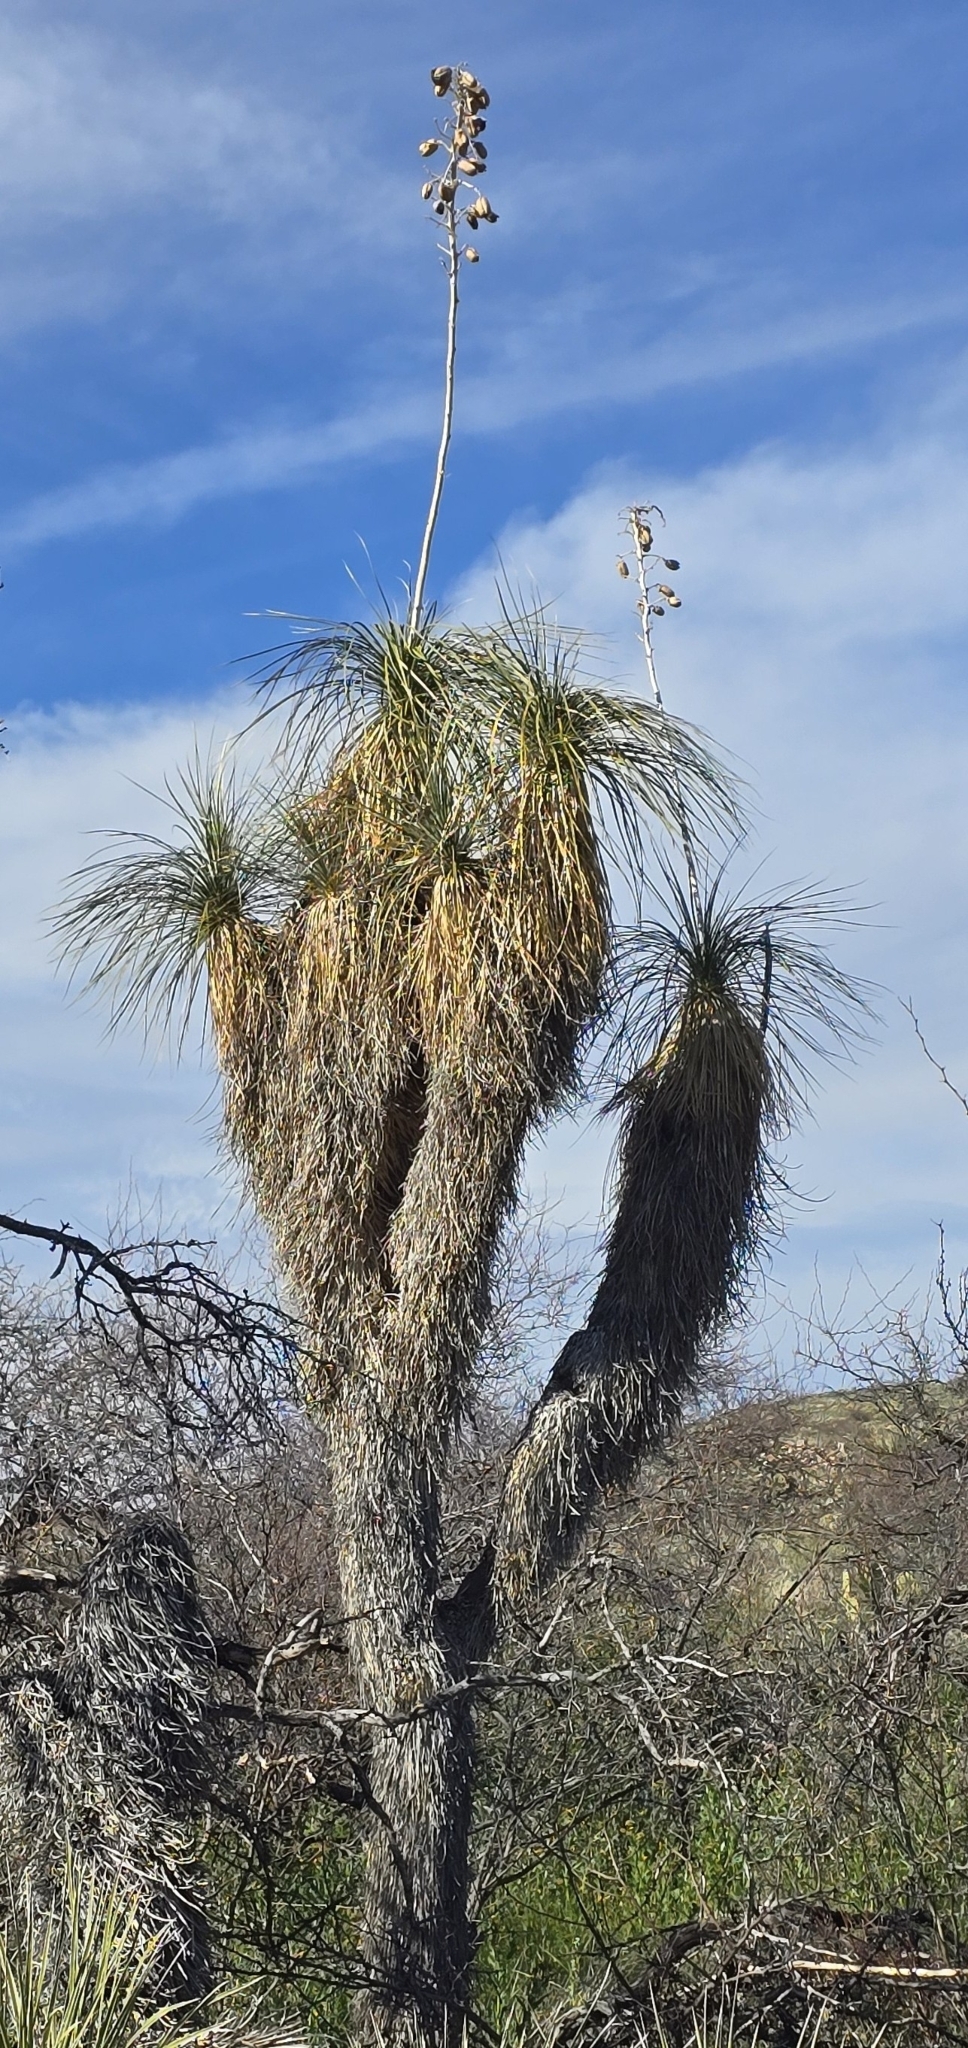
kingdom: Plantae
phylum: Tracheophyta
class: Liliopsida
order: Asparagales
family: Asparagaceae
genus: Yucca
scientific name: Yucca elata
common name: Palmella
